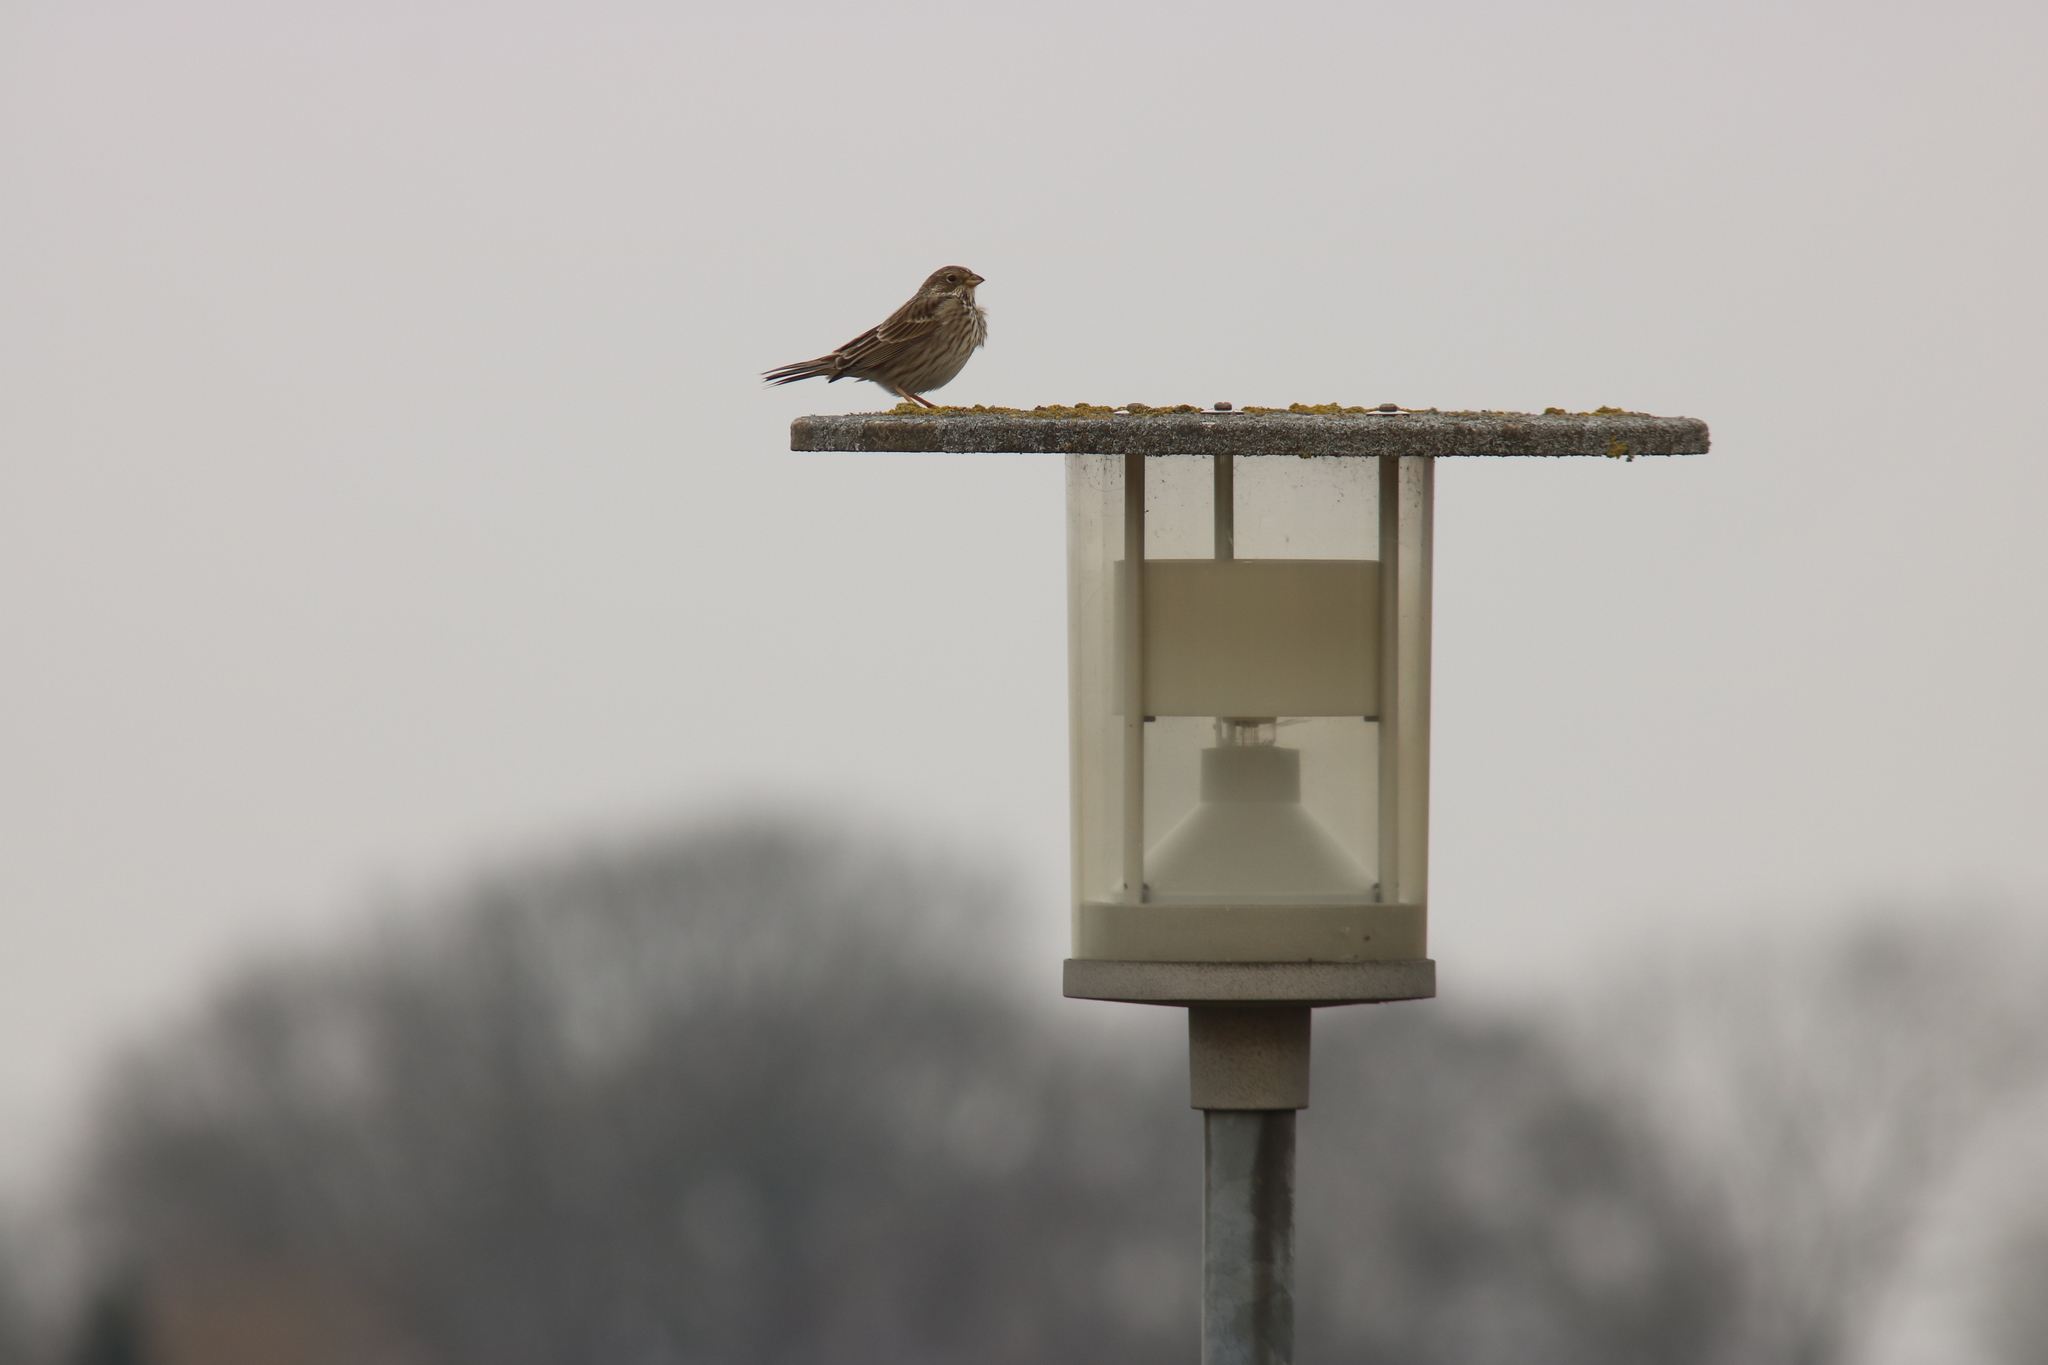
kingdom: Animalia
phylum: Chordata
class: Aves
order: Passeriformes
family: Emberizidae
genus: Emberiza
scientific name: Emberiza calandra
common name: Corn bunting
